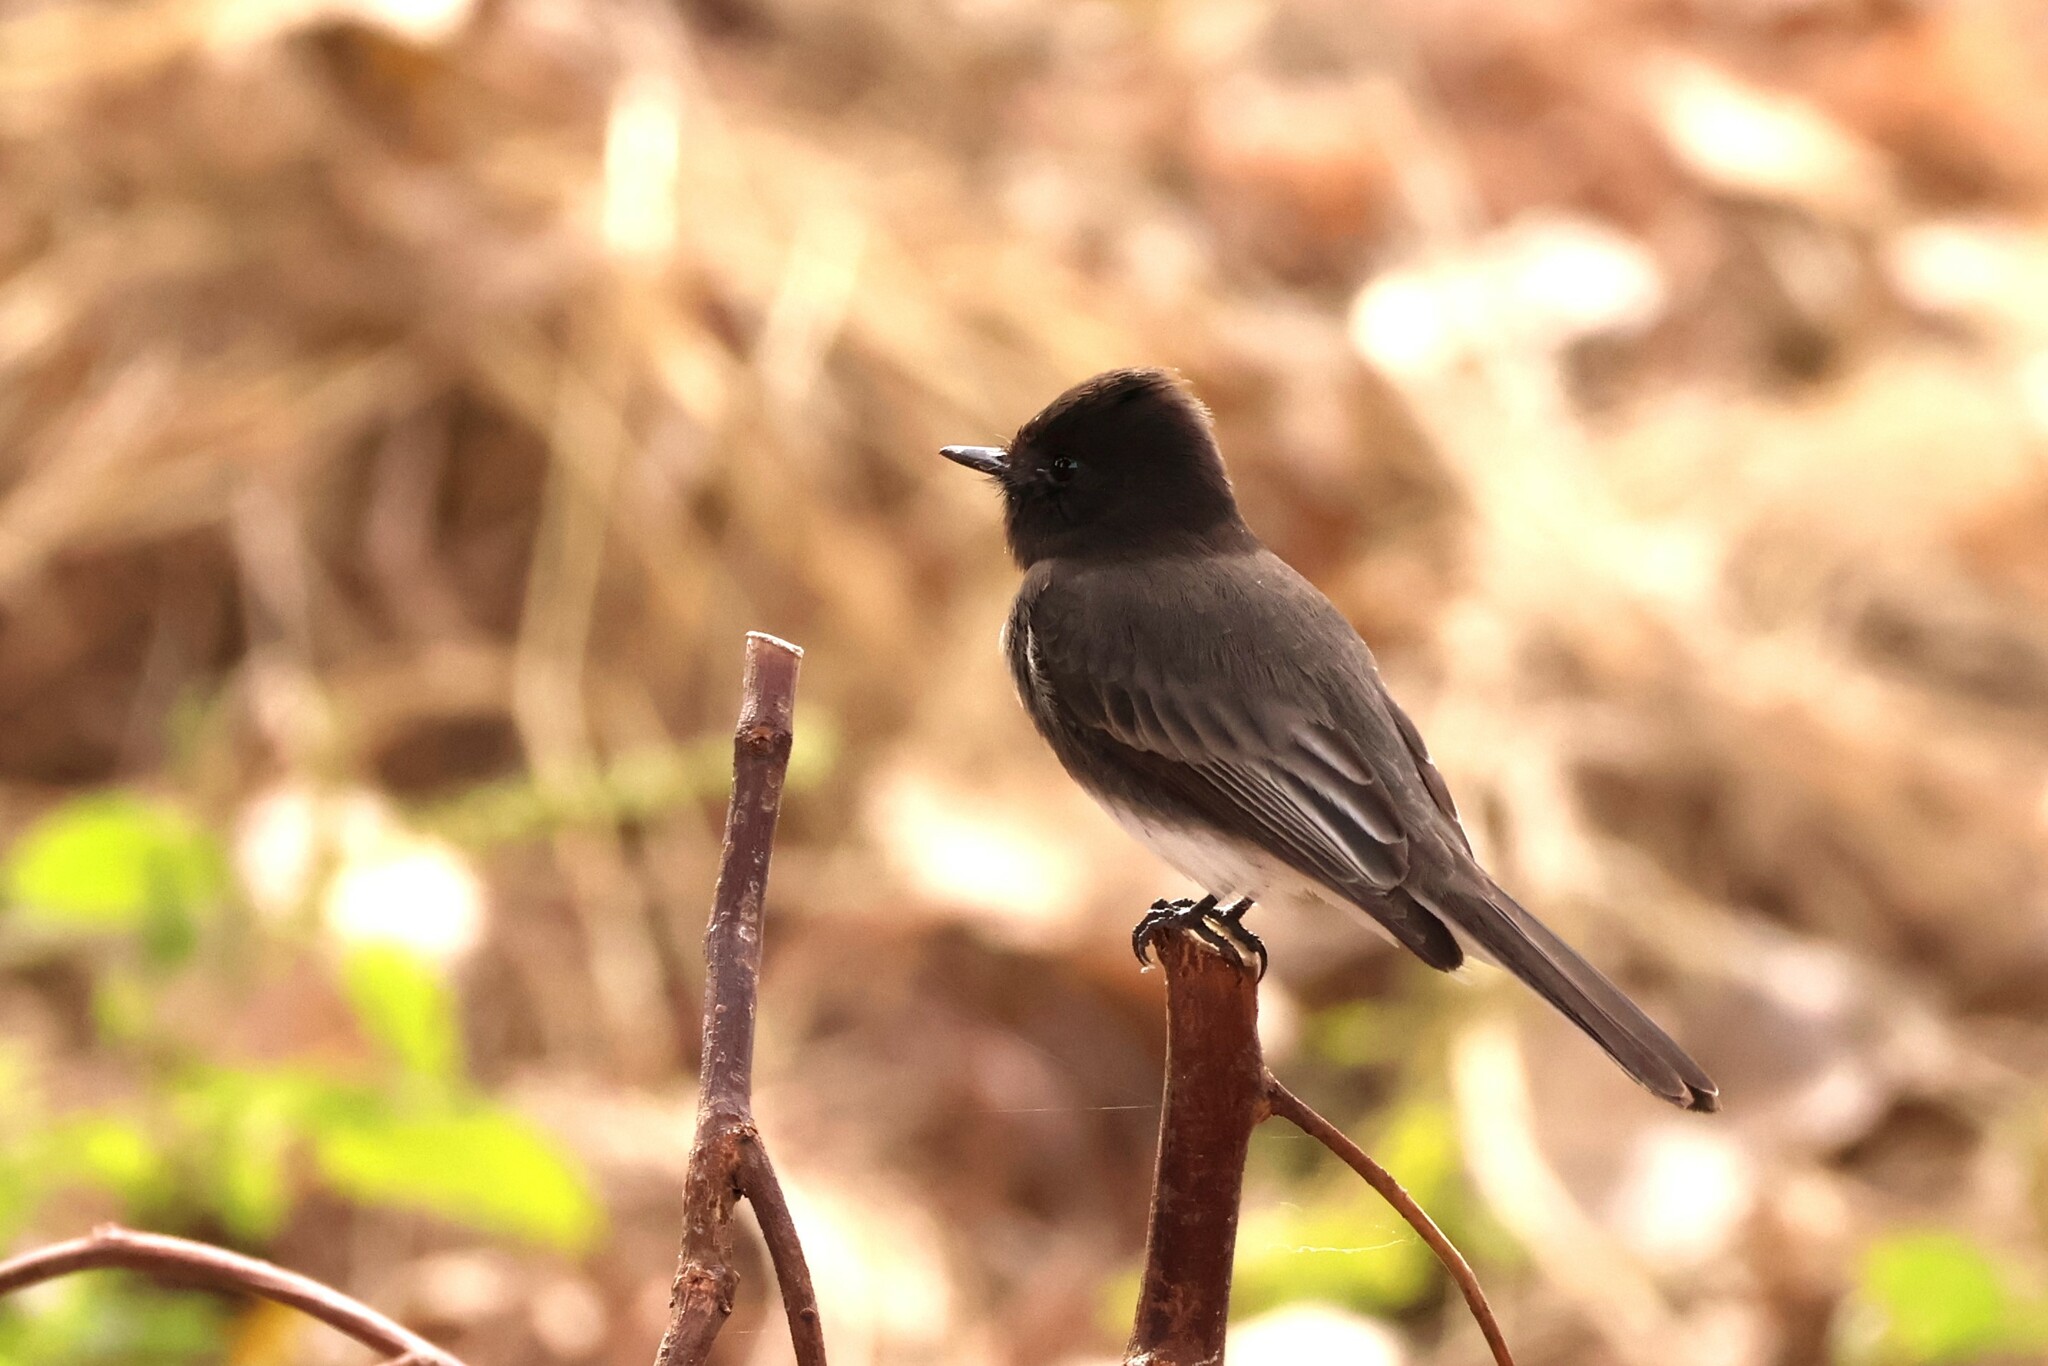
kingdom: Animalia
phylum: Chordata
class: Aves
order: Passeriformes
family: Tyrannidae
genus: Sayornis
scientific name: Sayornis nigricans
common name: Black phoebe
